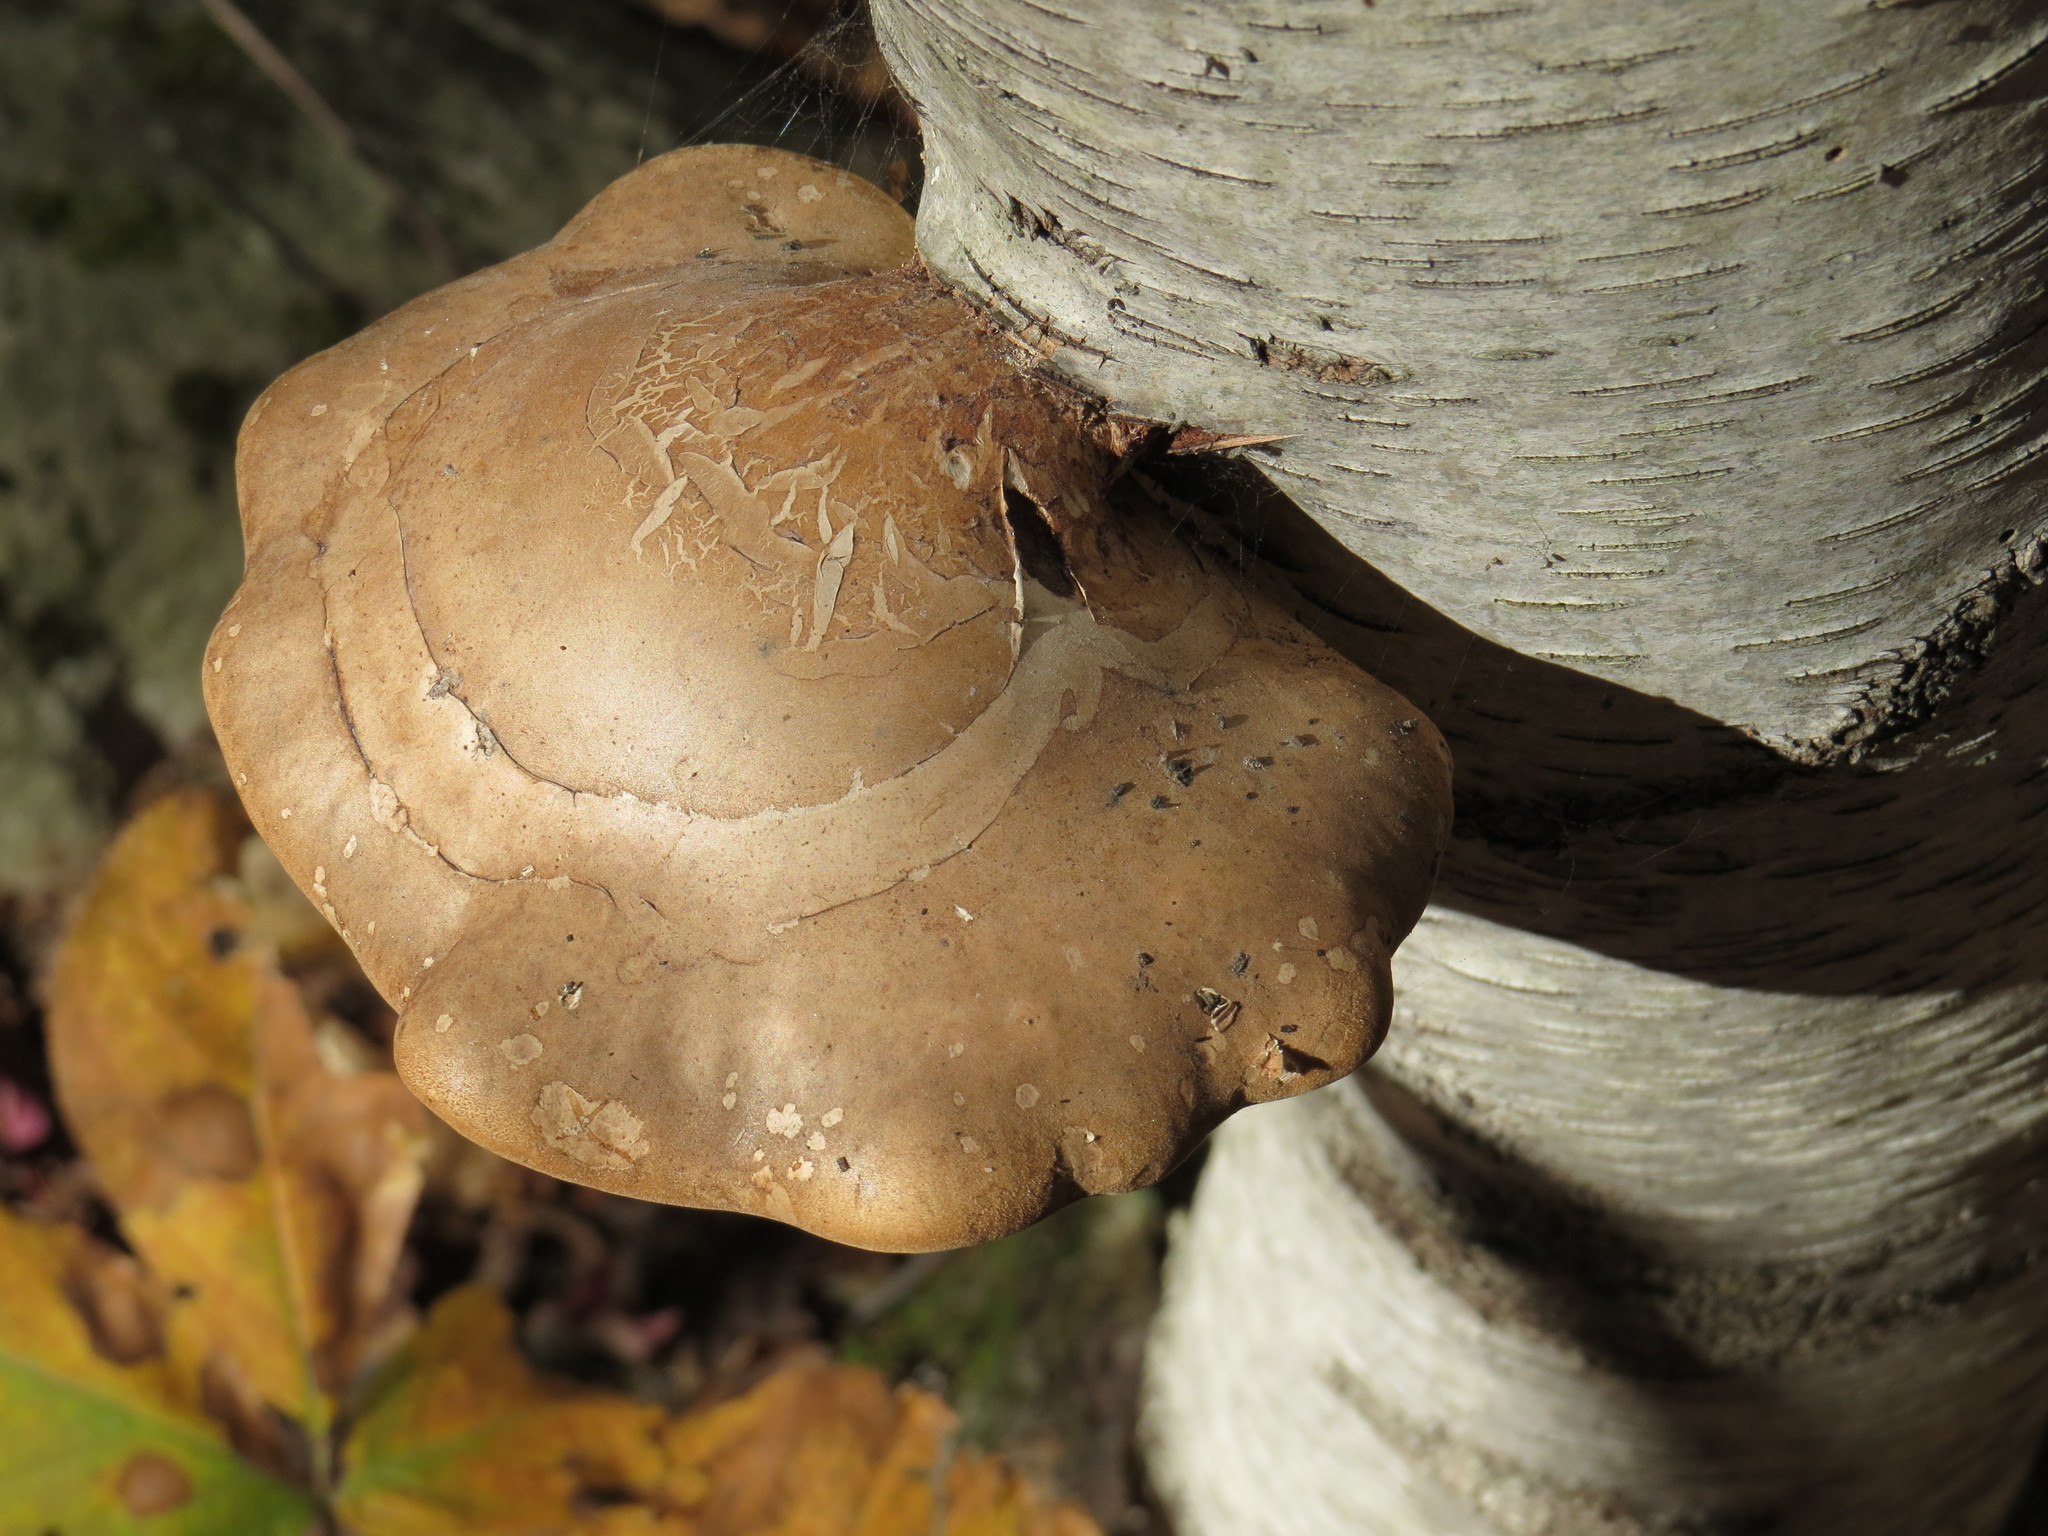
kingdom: Fungi
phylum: Basidiomycota
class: Agaricomycetes
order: Polyporales
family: Fomitopsidaceae
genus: Fomitopsis
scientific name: Fomitopsis betulina
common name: Birch polypore
